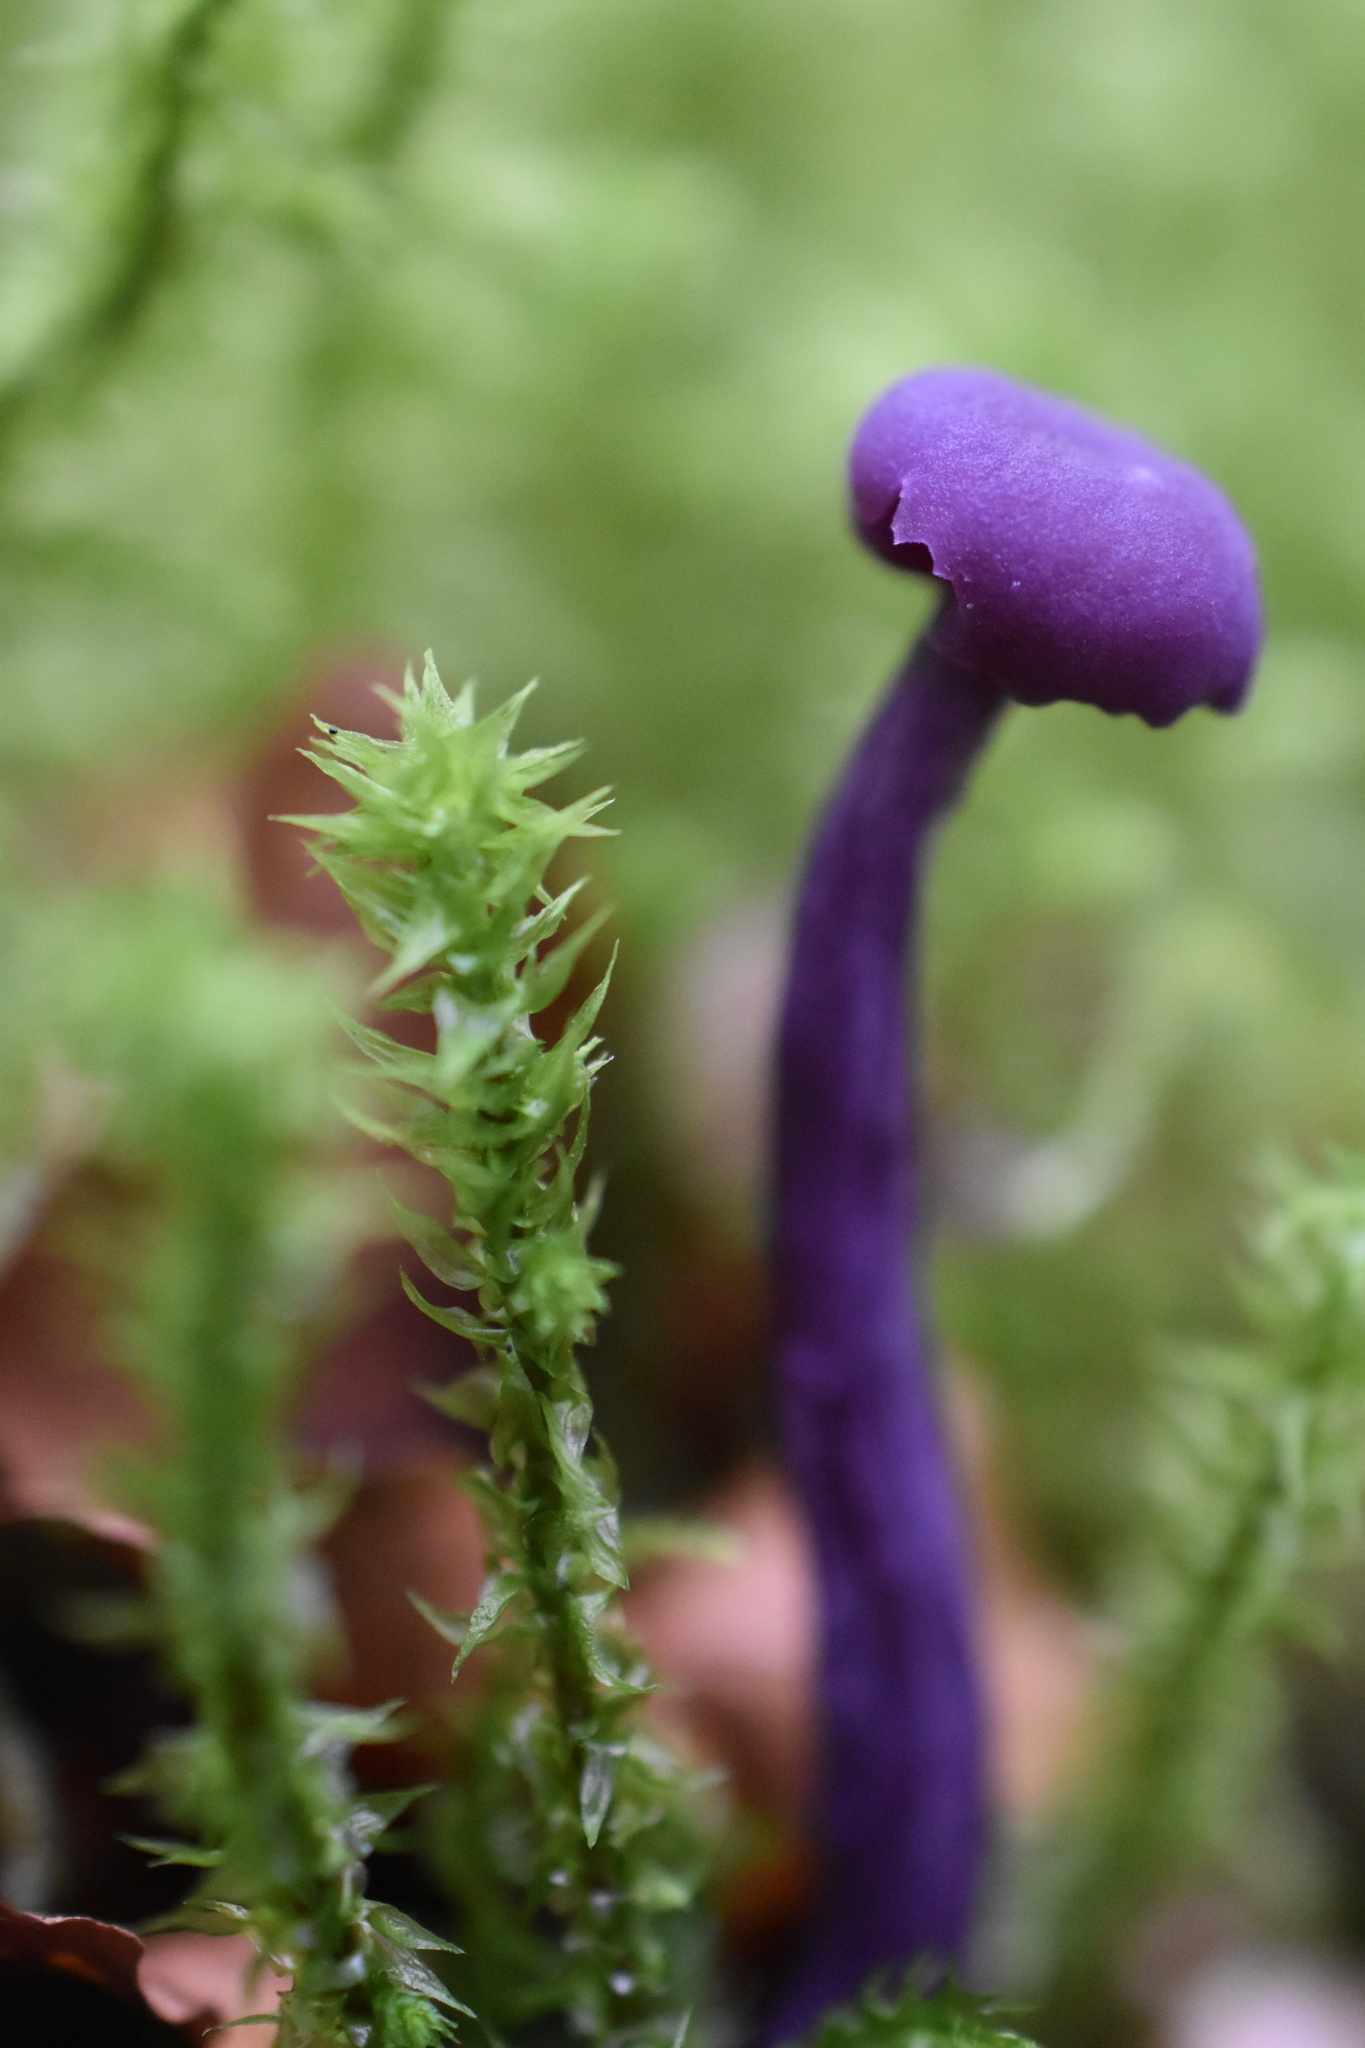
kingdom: Fungi
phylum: Basidiomycota
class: Agaricomycetes
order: Agaricales
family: Hydnangiaceae
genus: Laccaria
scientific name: Laccaria amethystina
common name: Amethyst deceiver
